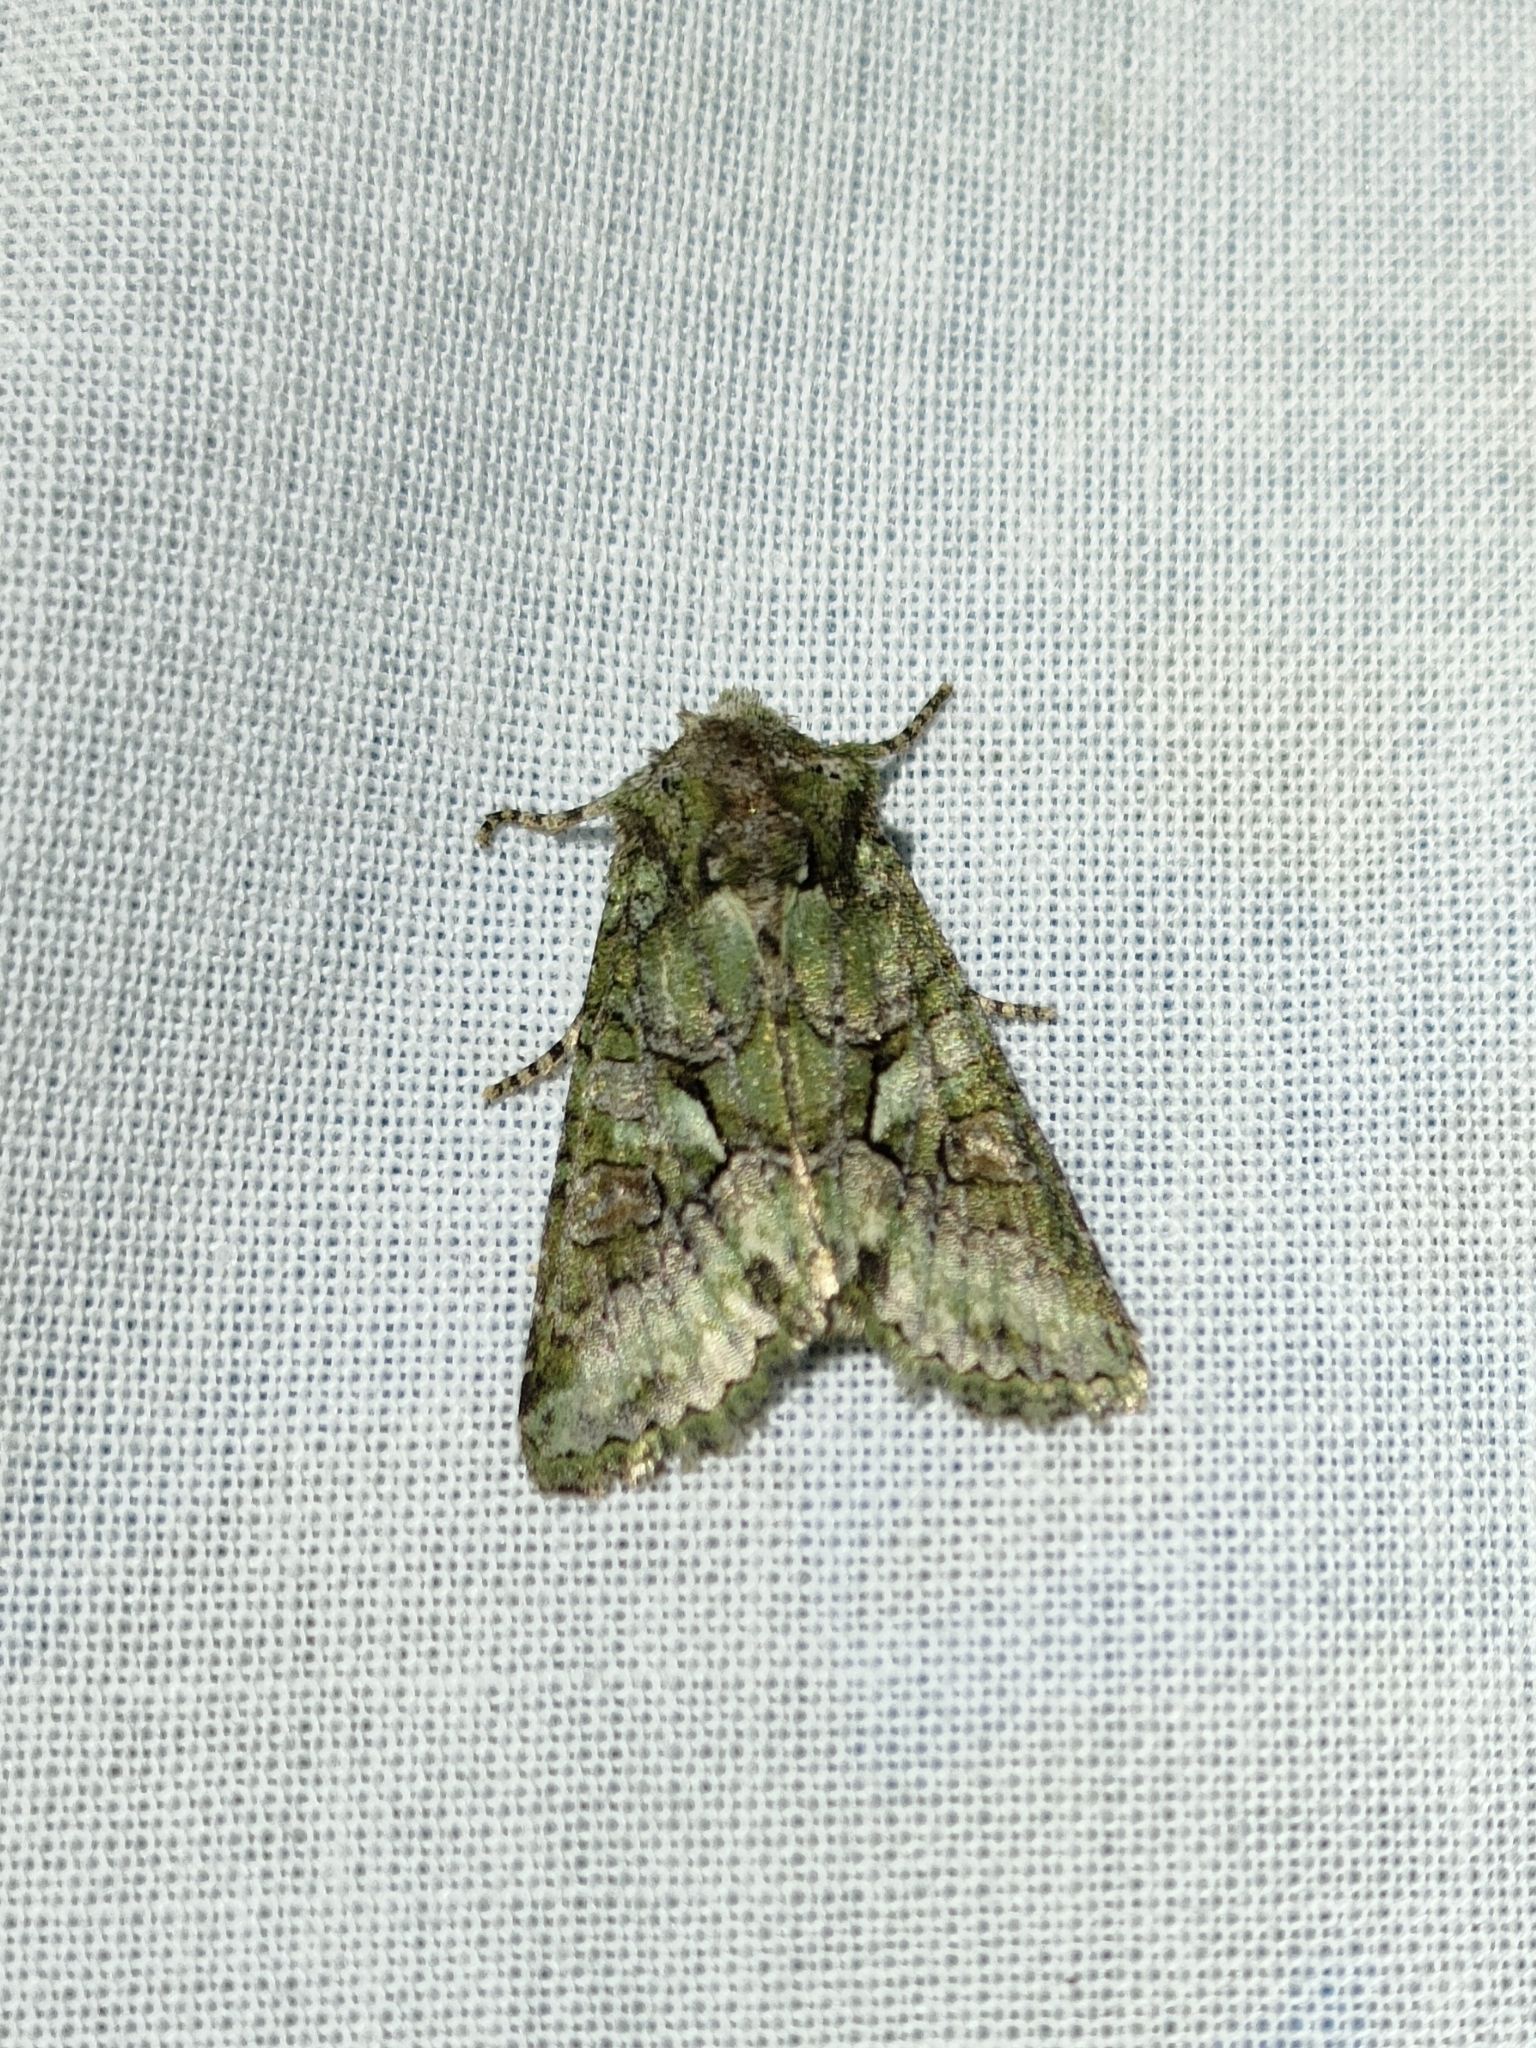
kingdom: Animalia
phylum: Arthropoda
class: Insecta
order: Lepidoptera
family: Noctuidae
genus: Dryobotodes
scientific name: Dryobotodes roboris
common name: Southern brindled green
